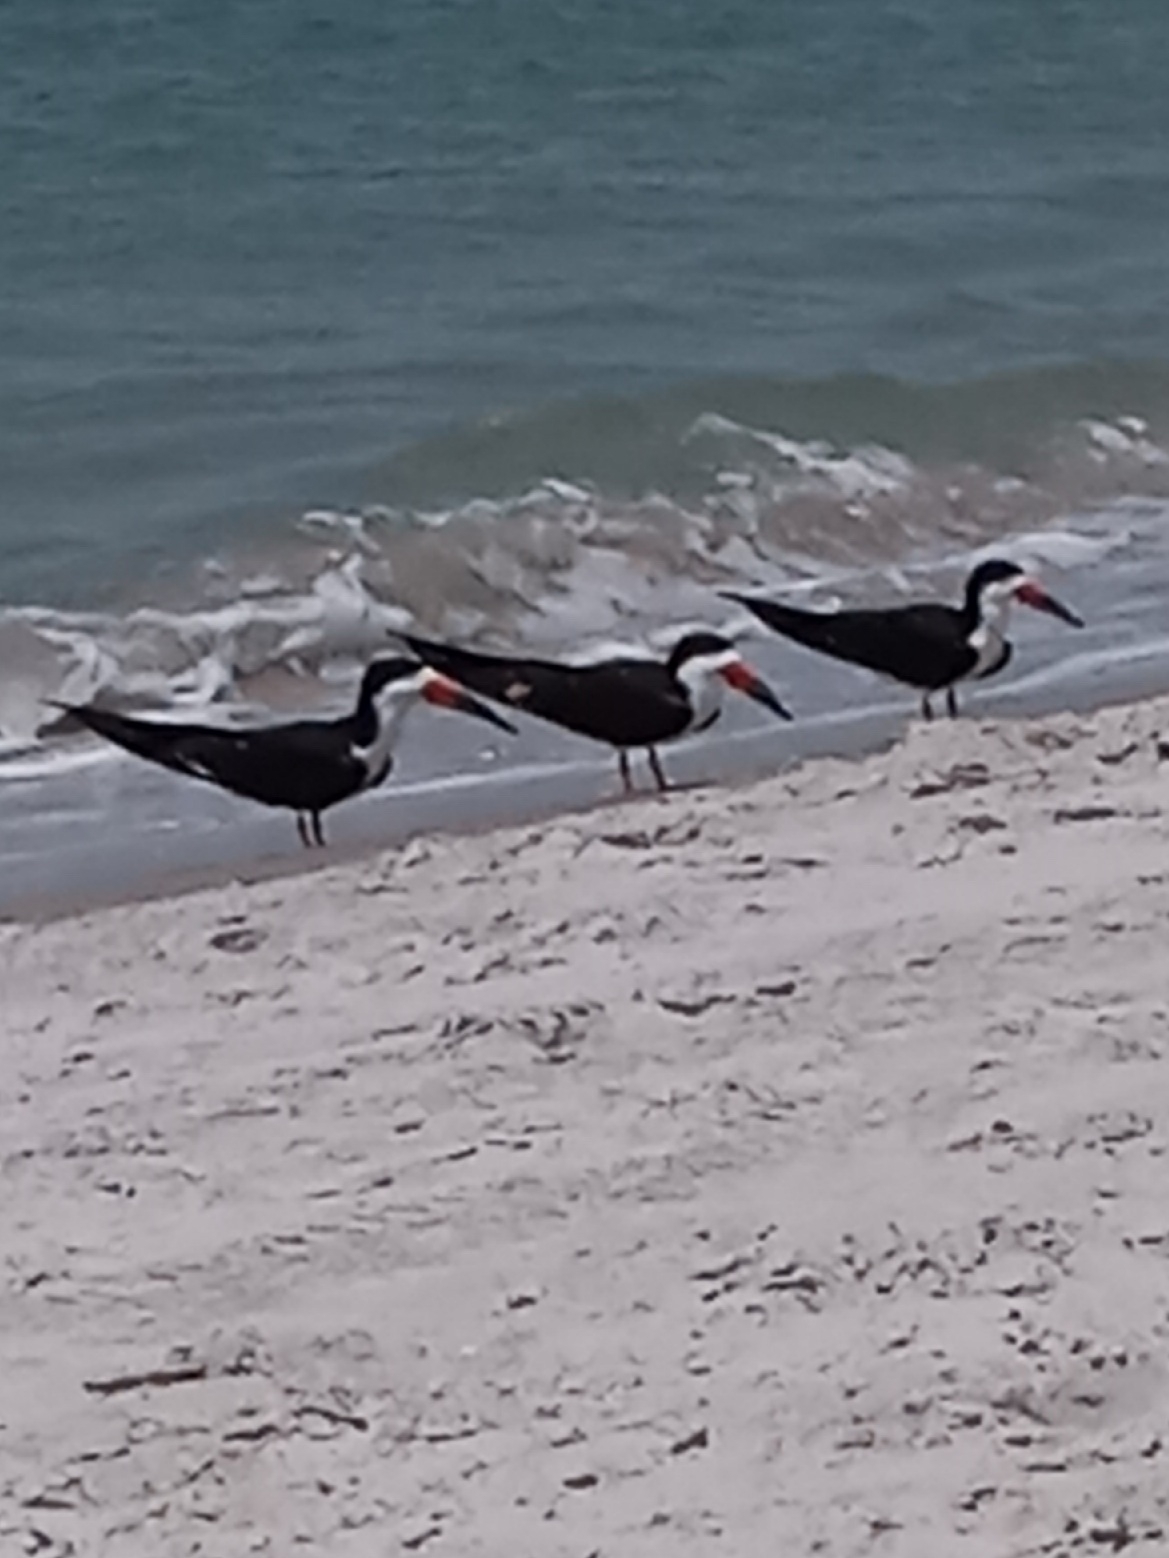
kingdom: Animalia
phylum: Chordata
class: Aves
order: Charadriiformes
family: Laridae
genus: Rynchops
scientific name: Rynchops niger
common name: Black skimmer
